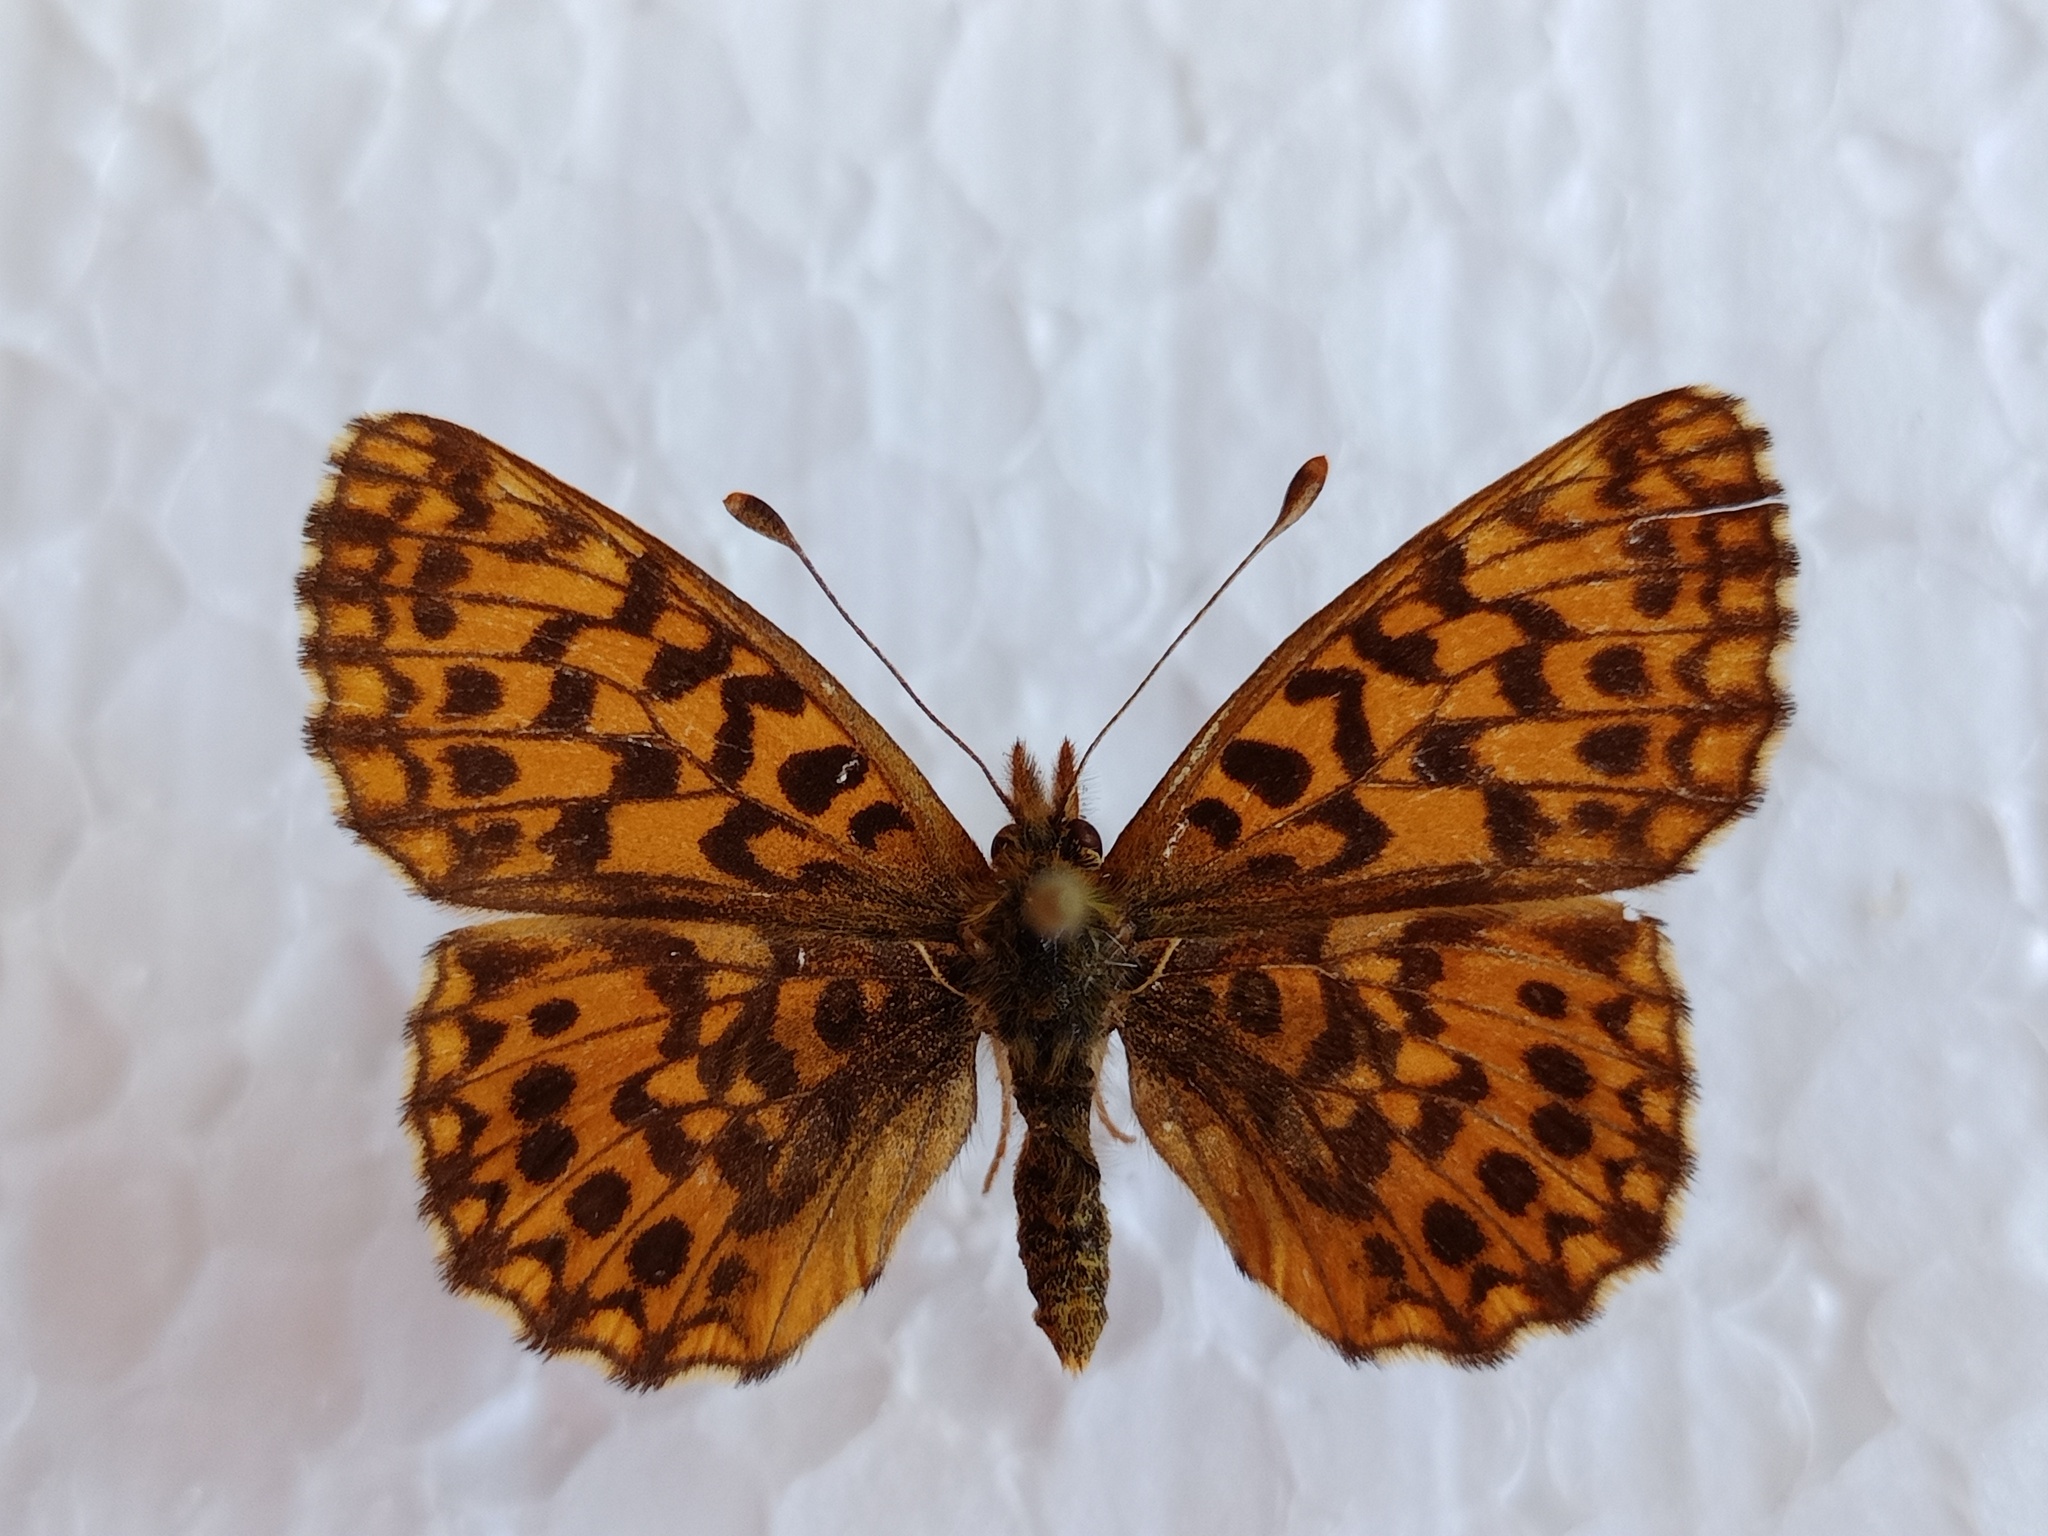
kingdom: Animalia
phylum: Arthropoda
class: Insecta
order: Lepidoptera
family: Nymphalidae
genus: Boloria
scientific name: Boloria dia
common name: Weaver's fritillary
